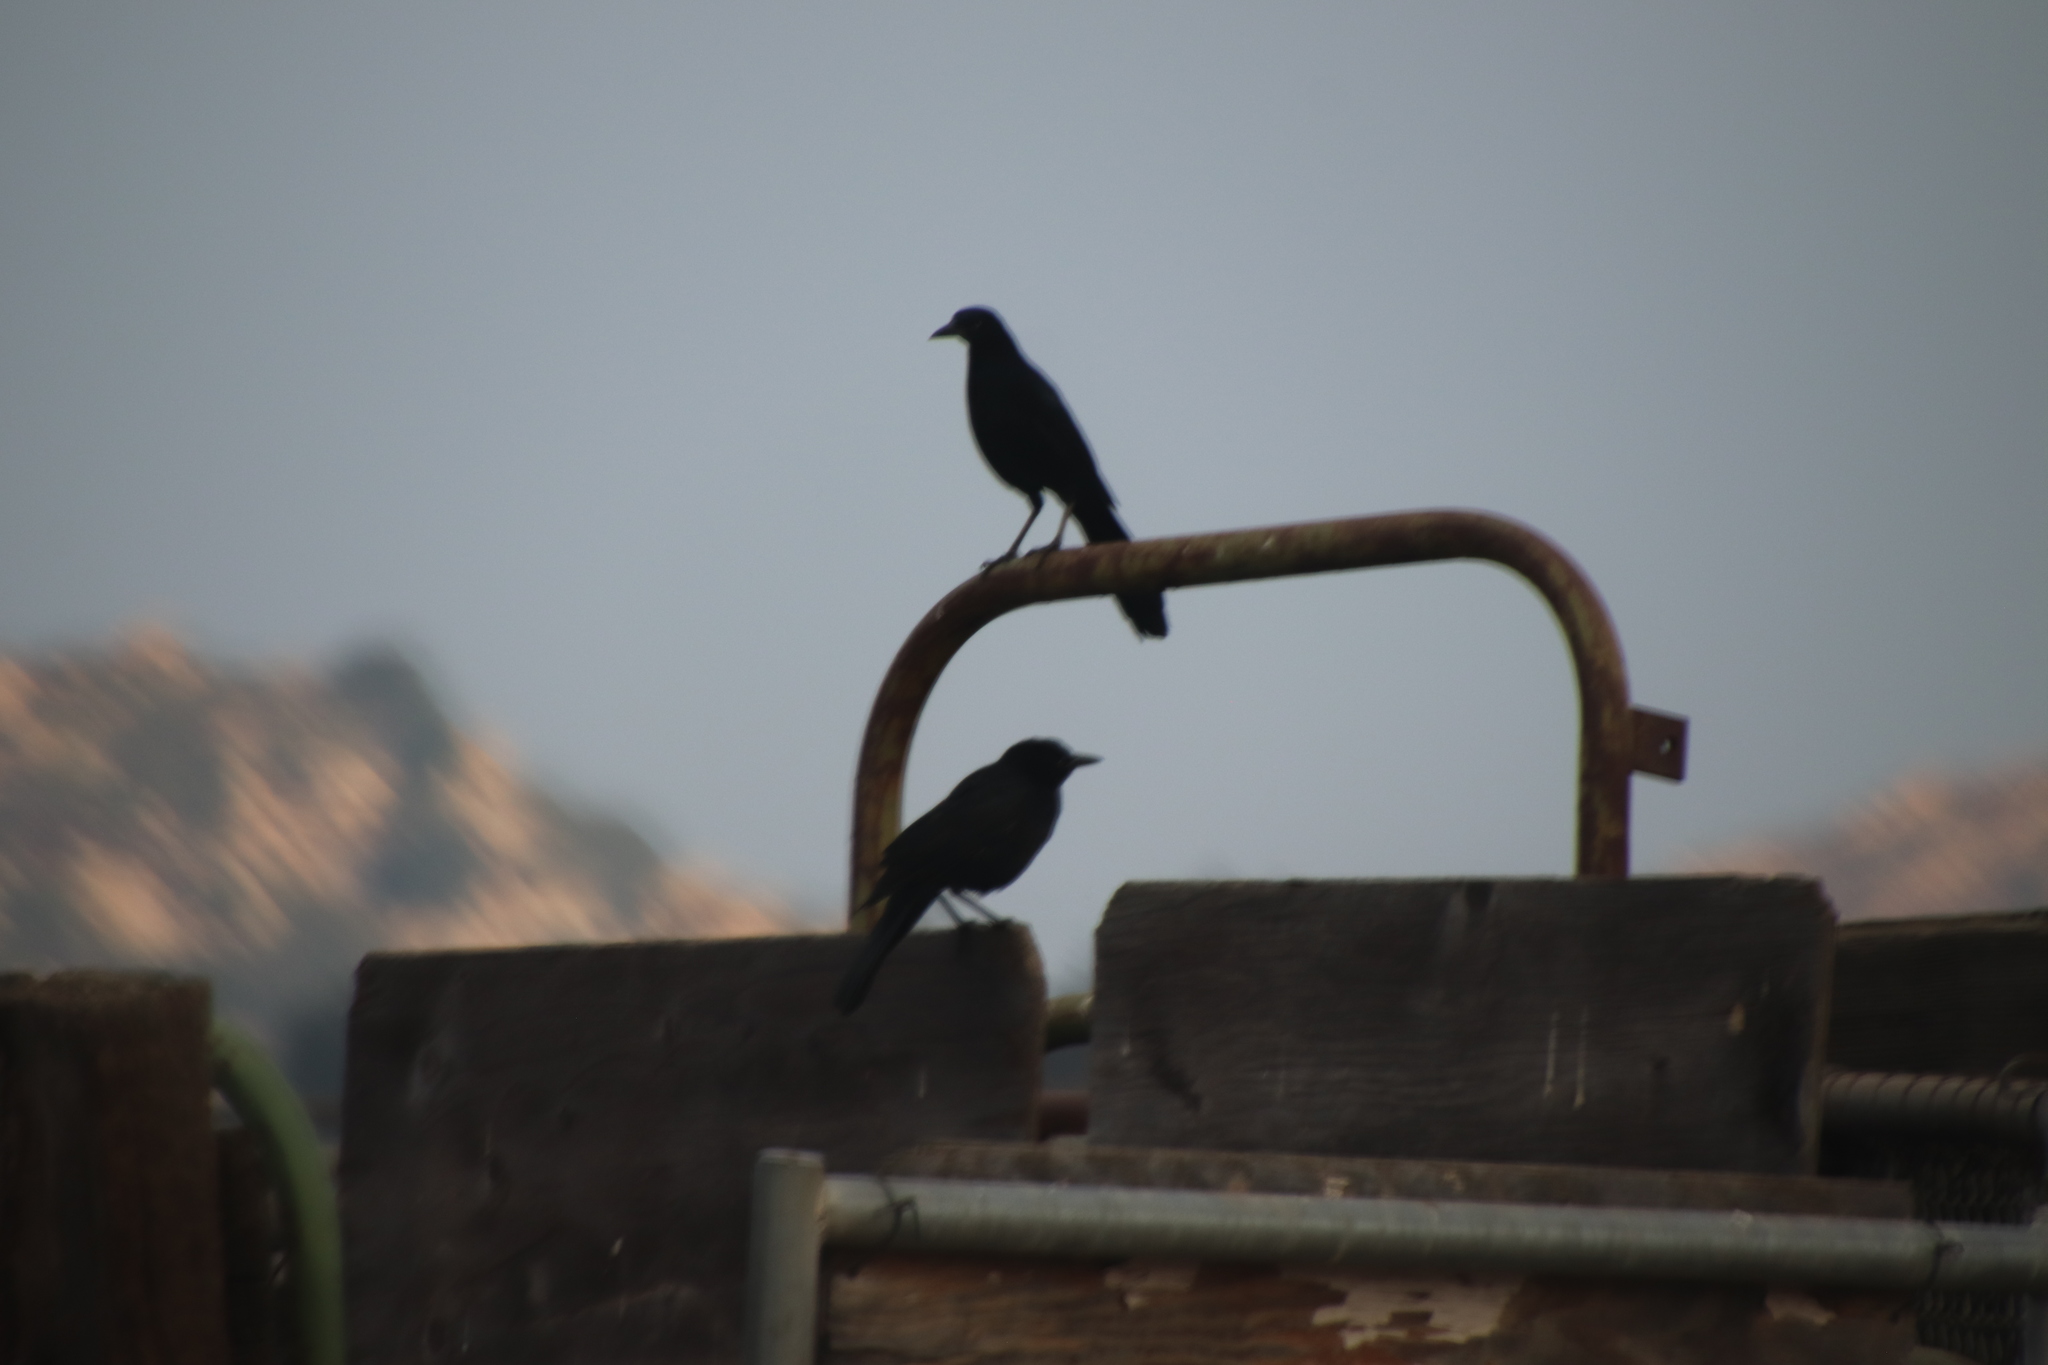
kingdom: Animalia
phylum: Chordata
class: Aves
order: Passeriformes
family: Icteridae
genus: Quiscalus
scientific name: Quiscalus mexicanus
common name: Great-tailed grackle
